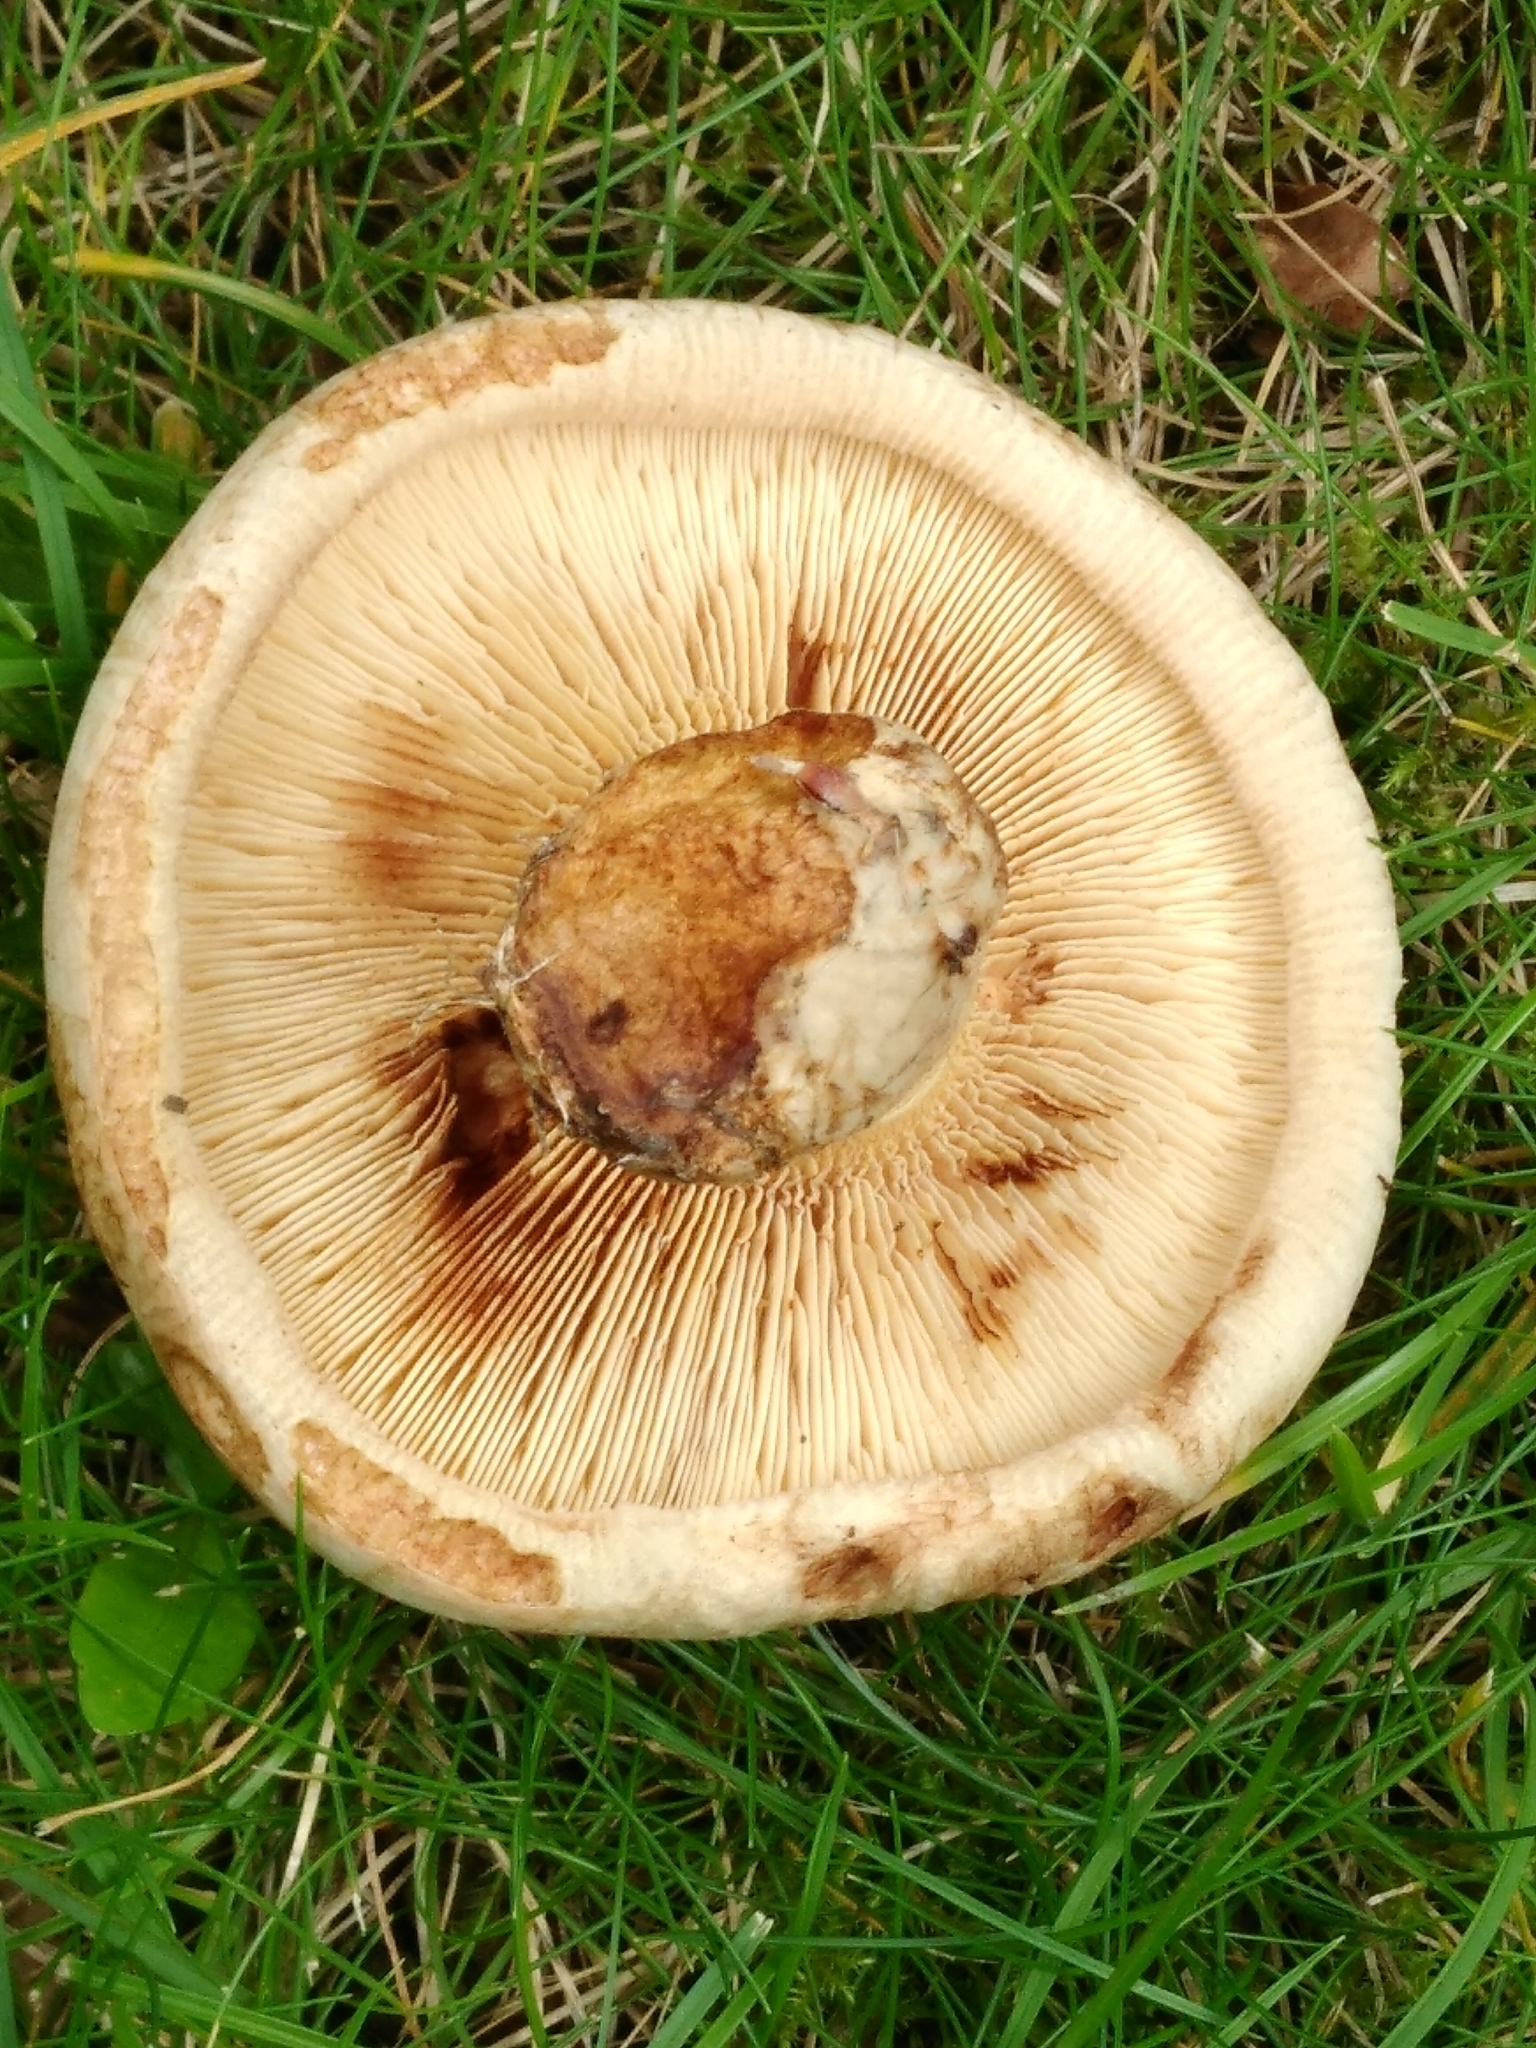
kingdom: Fungi
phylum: Basidiomycota
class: Agaricomycetes
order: Boletales
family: Paxillaceae
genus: Paxillus
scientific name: Paxillus involutus
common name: Brown roll rim
